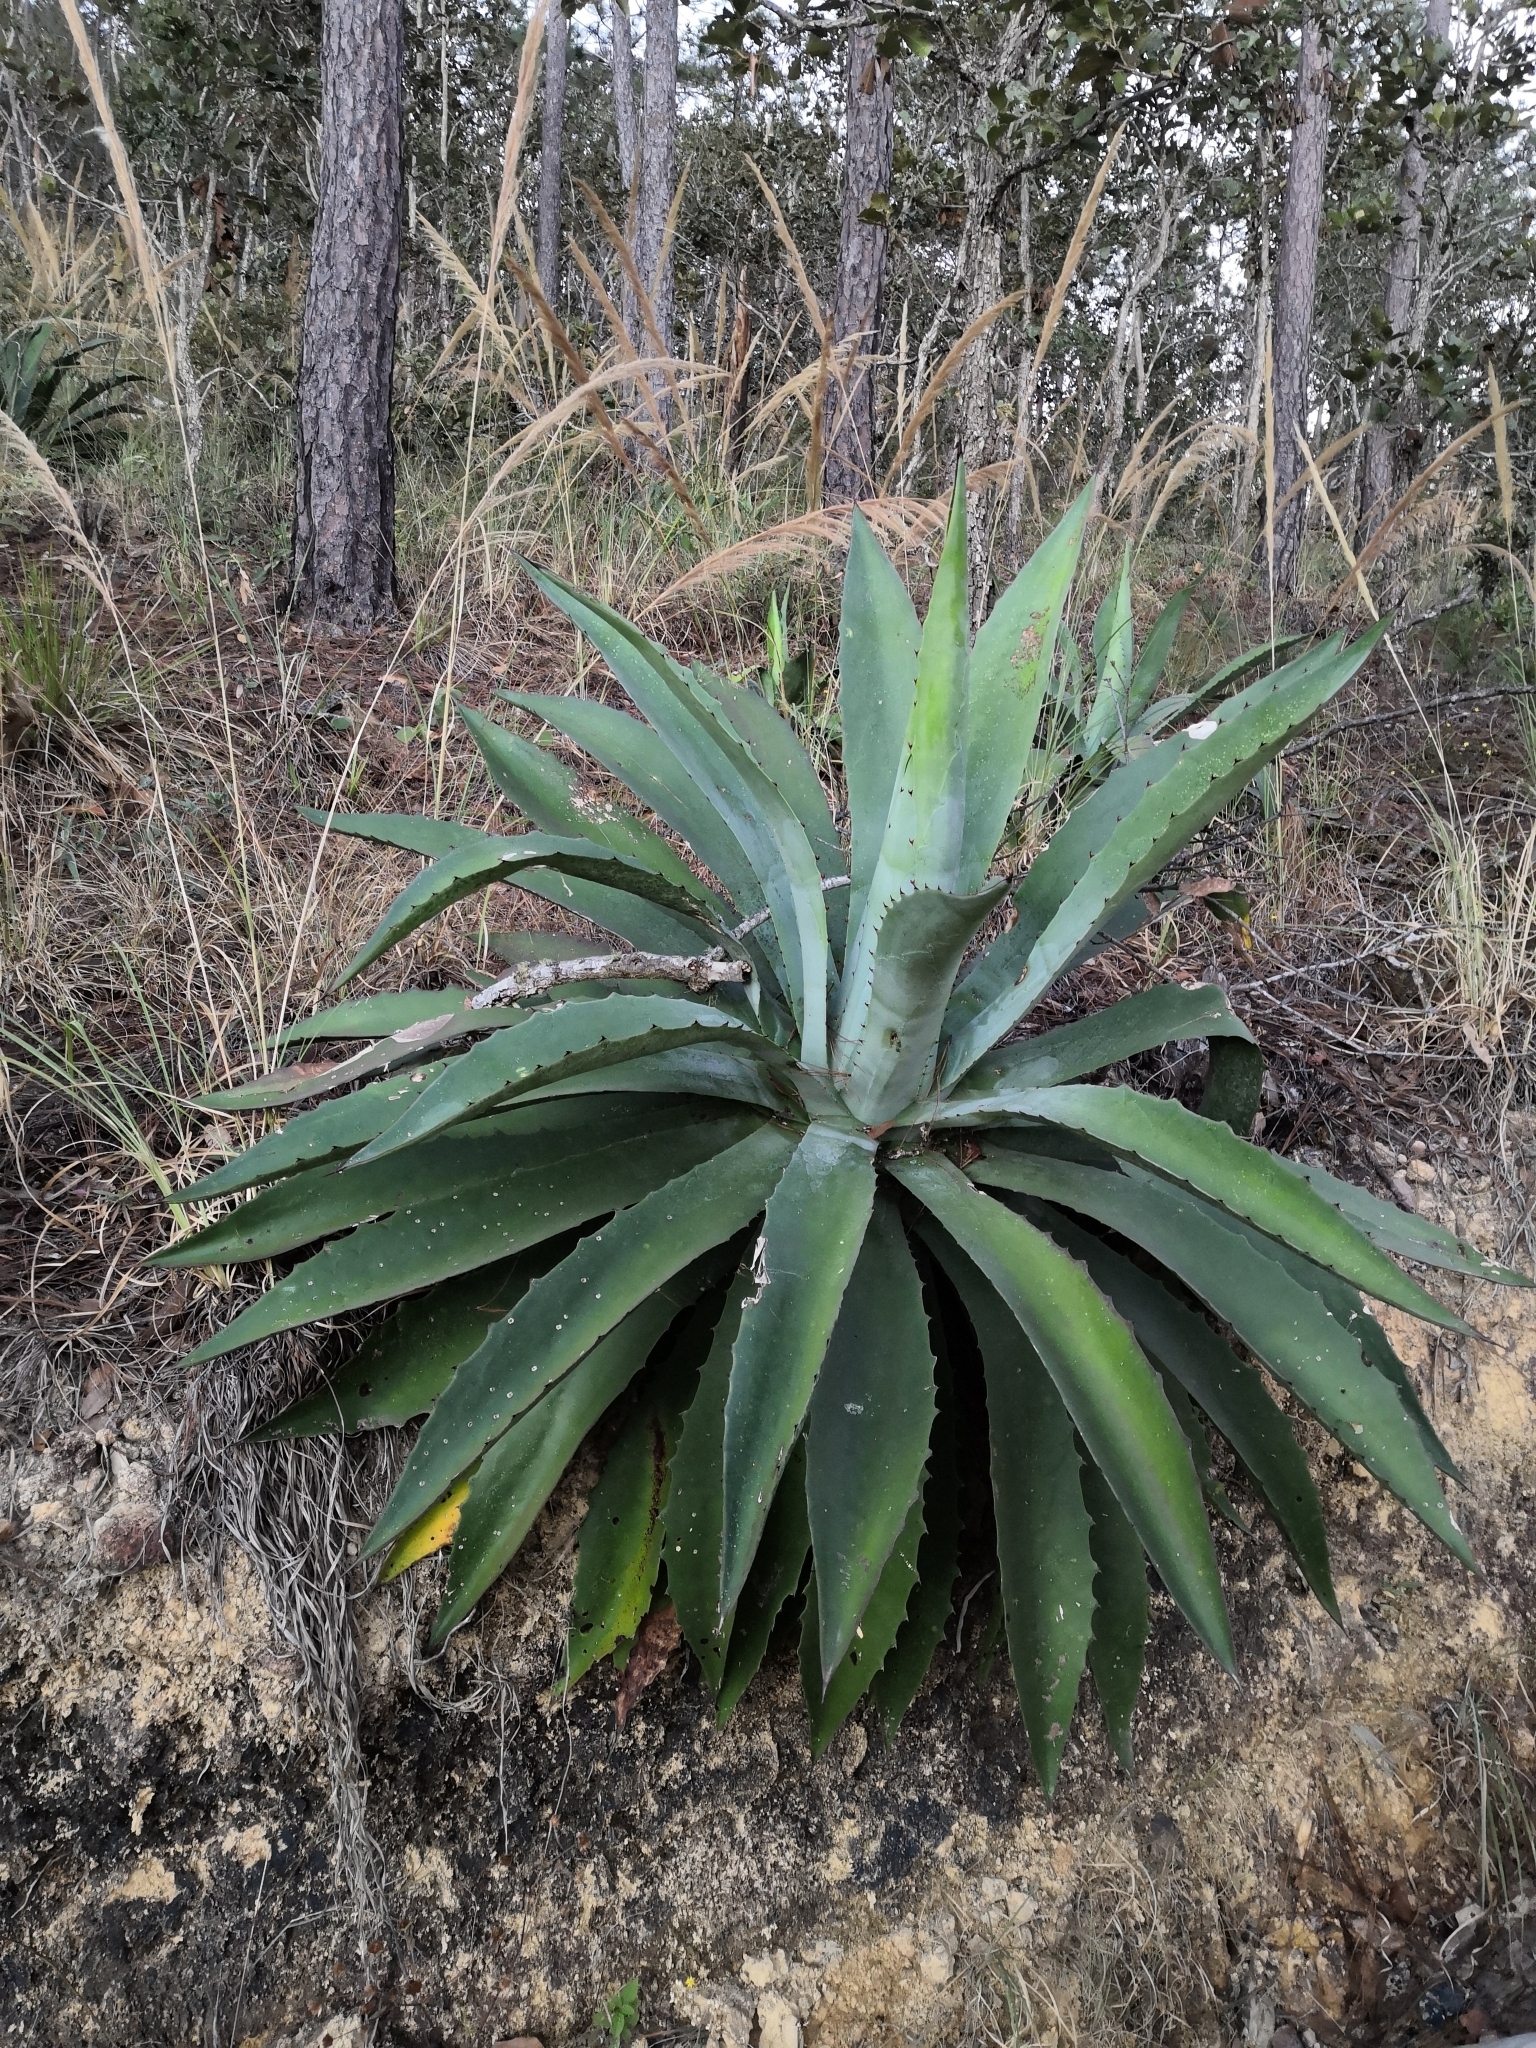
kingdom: Plantae
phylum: Tracheophyta
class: Liliopsida
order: Asparagales
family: Asparagaceae
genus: Agave
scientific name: Agave maximiliana
